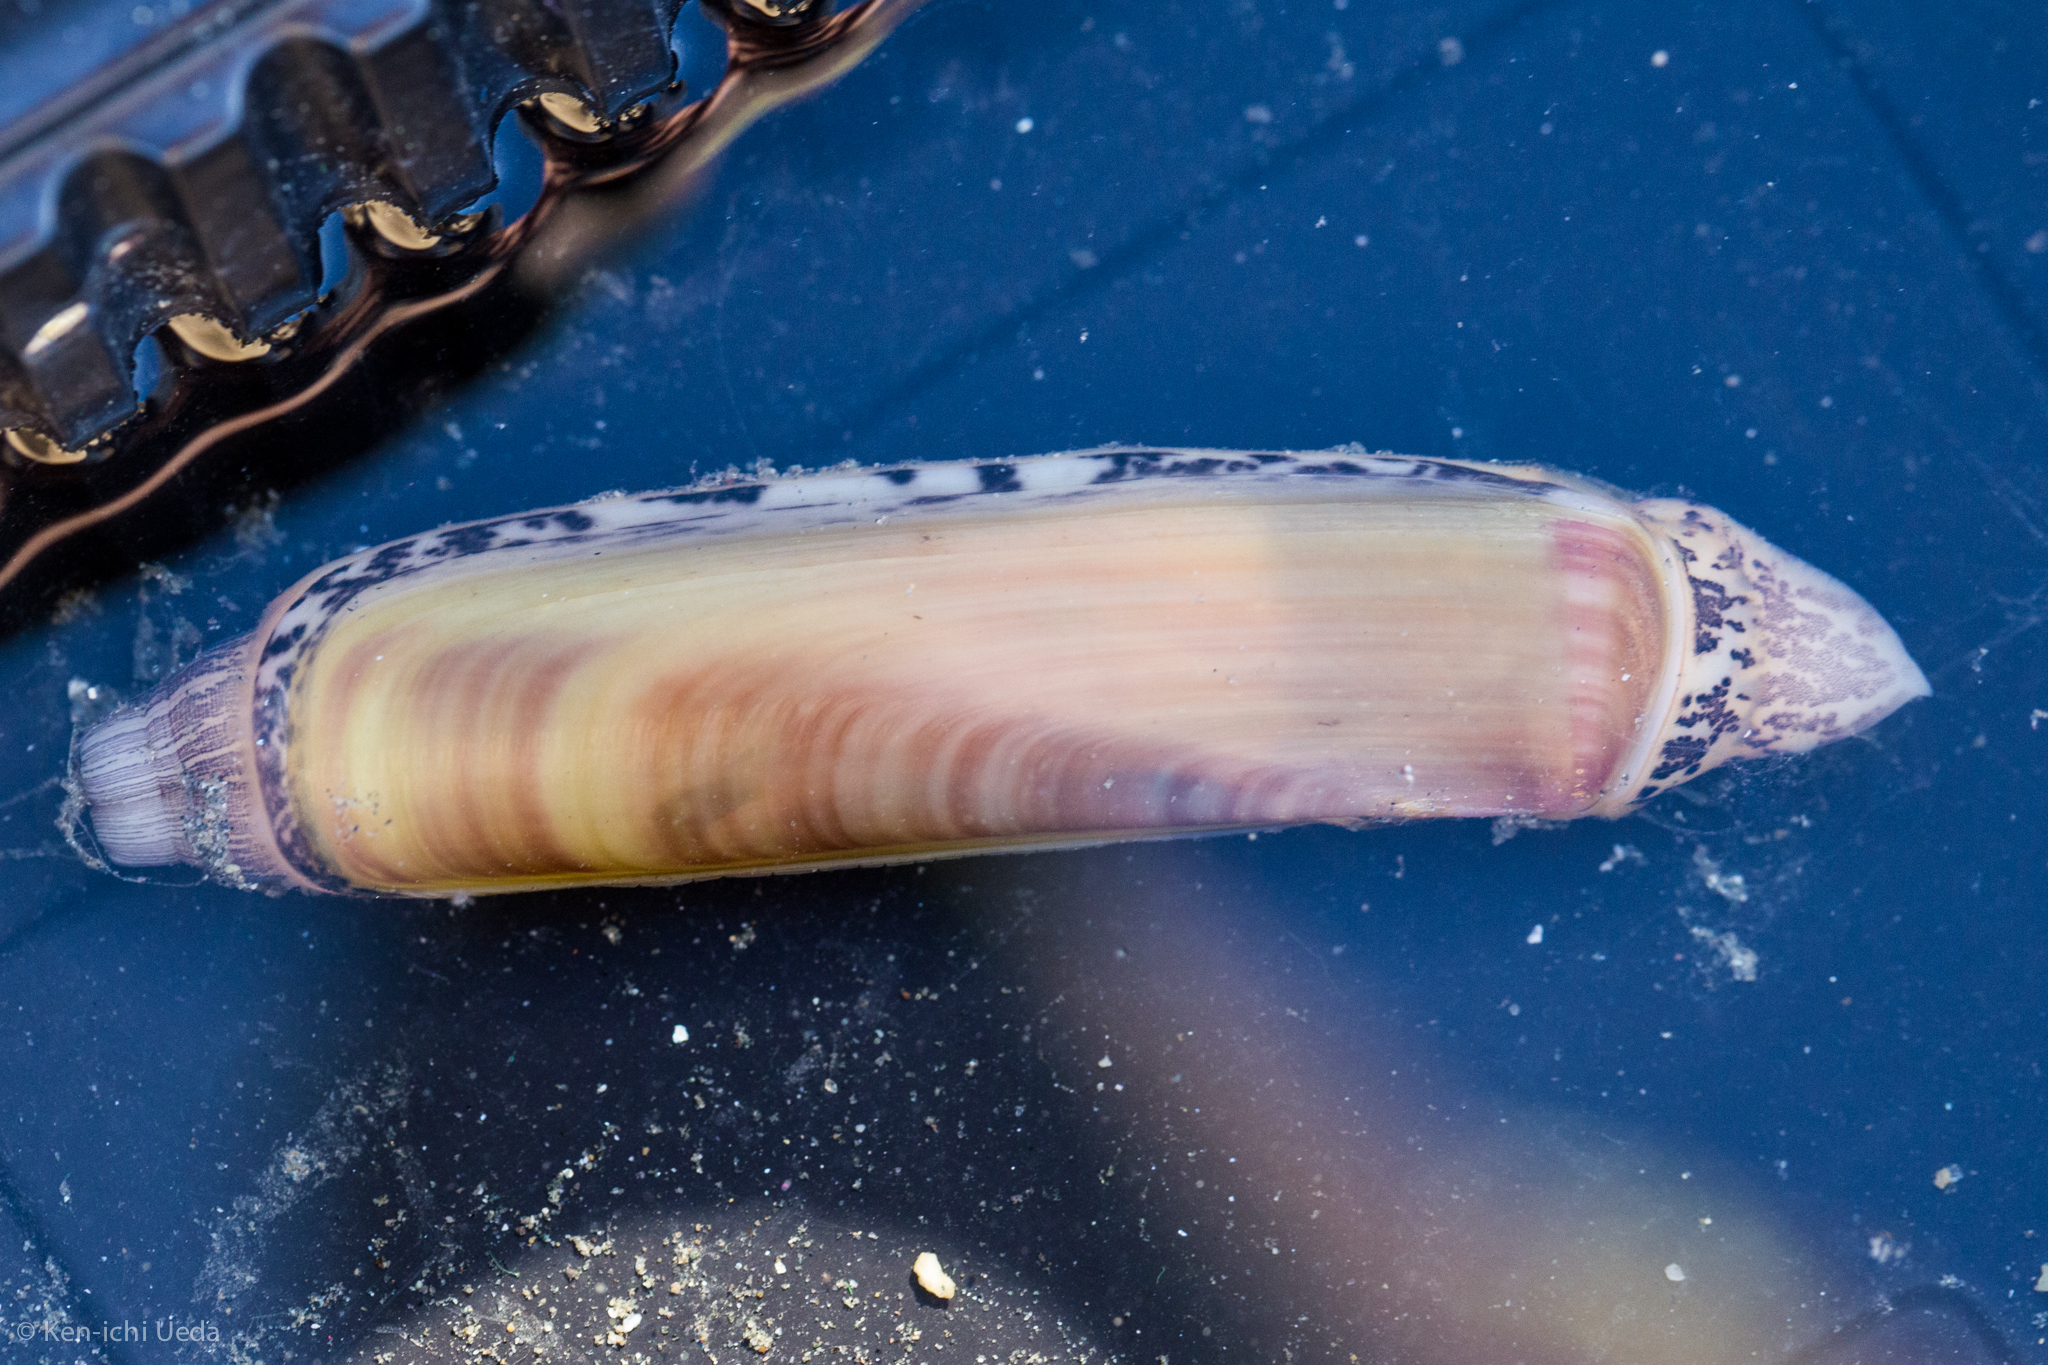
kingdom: Animalia
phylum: Mollusca
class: Bivalvia
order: Adapedonta
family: Solenidae
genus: Solen
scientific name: Solen sicarius
